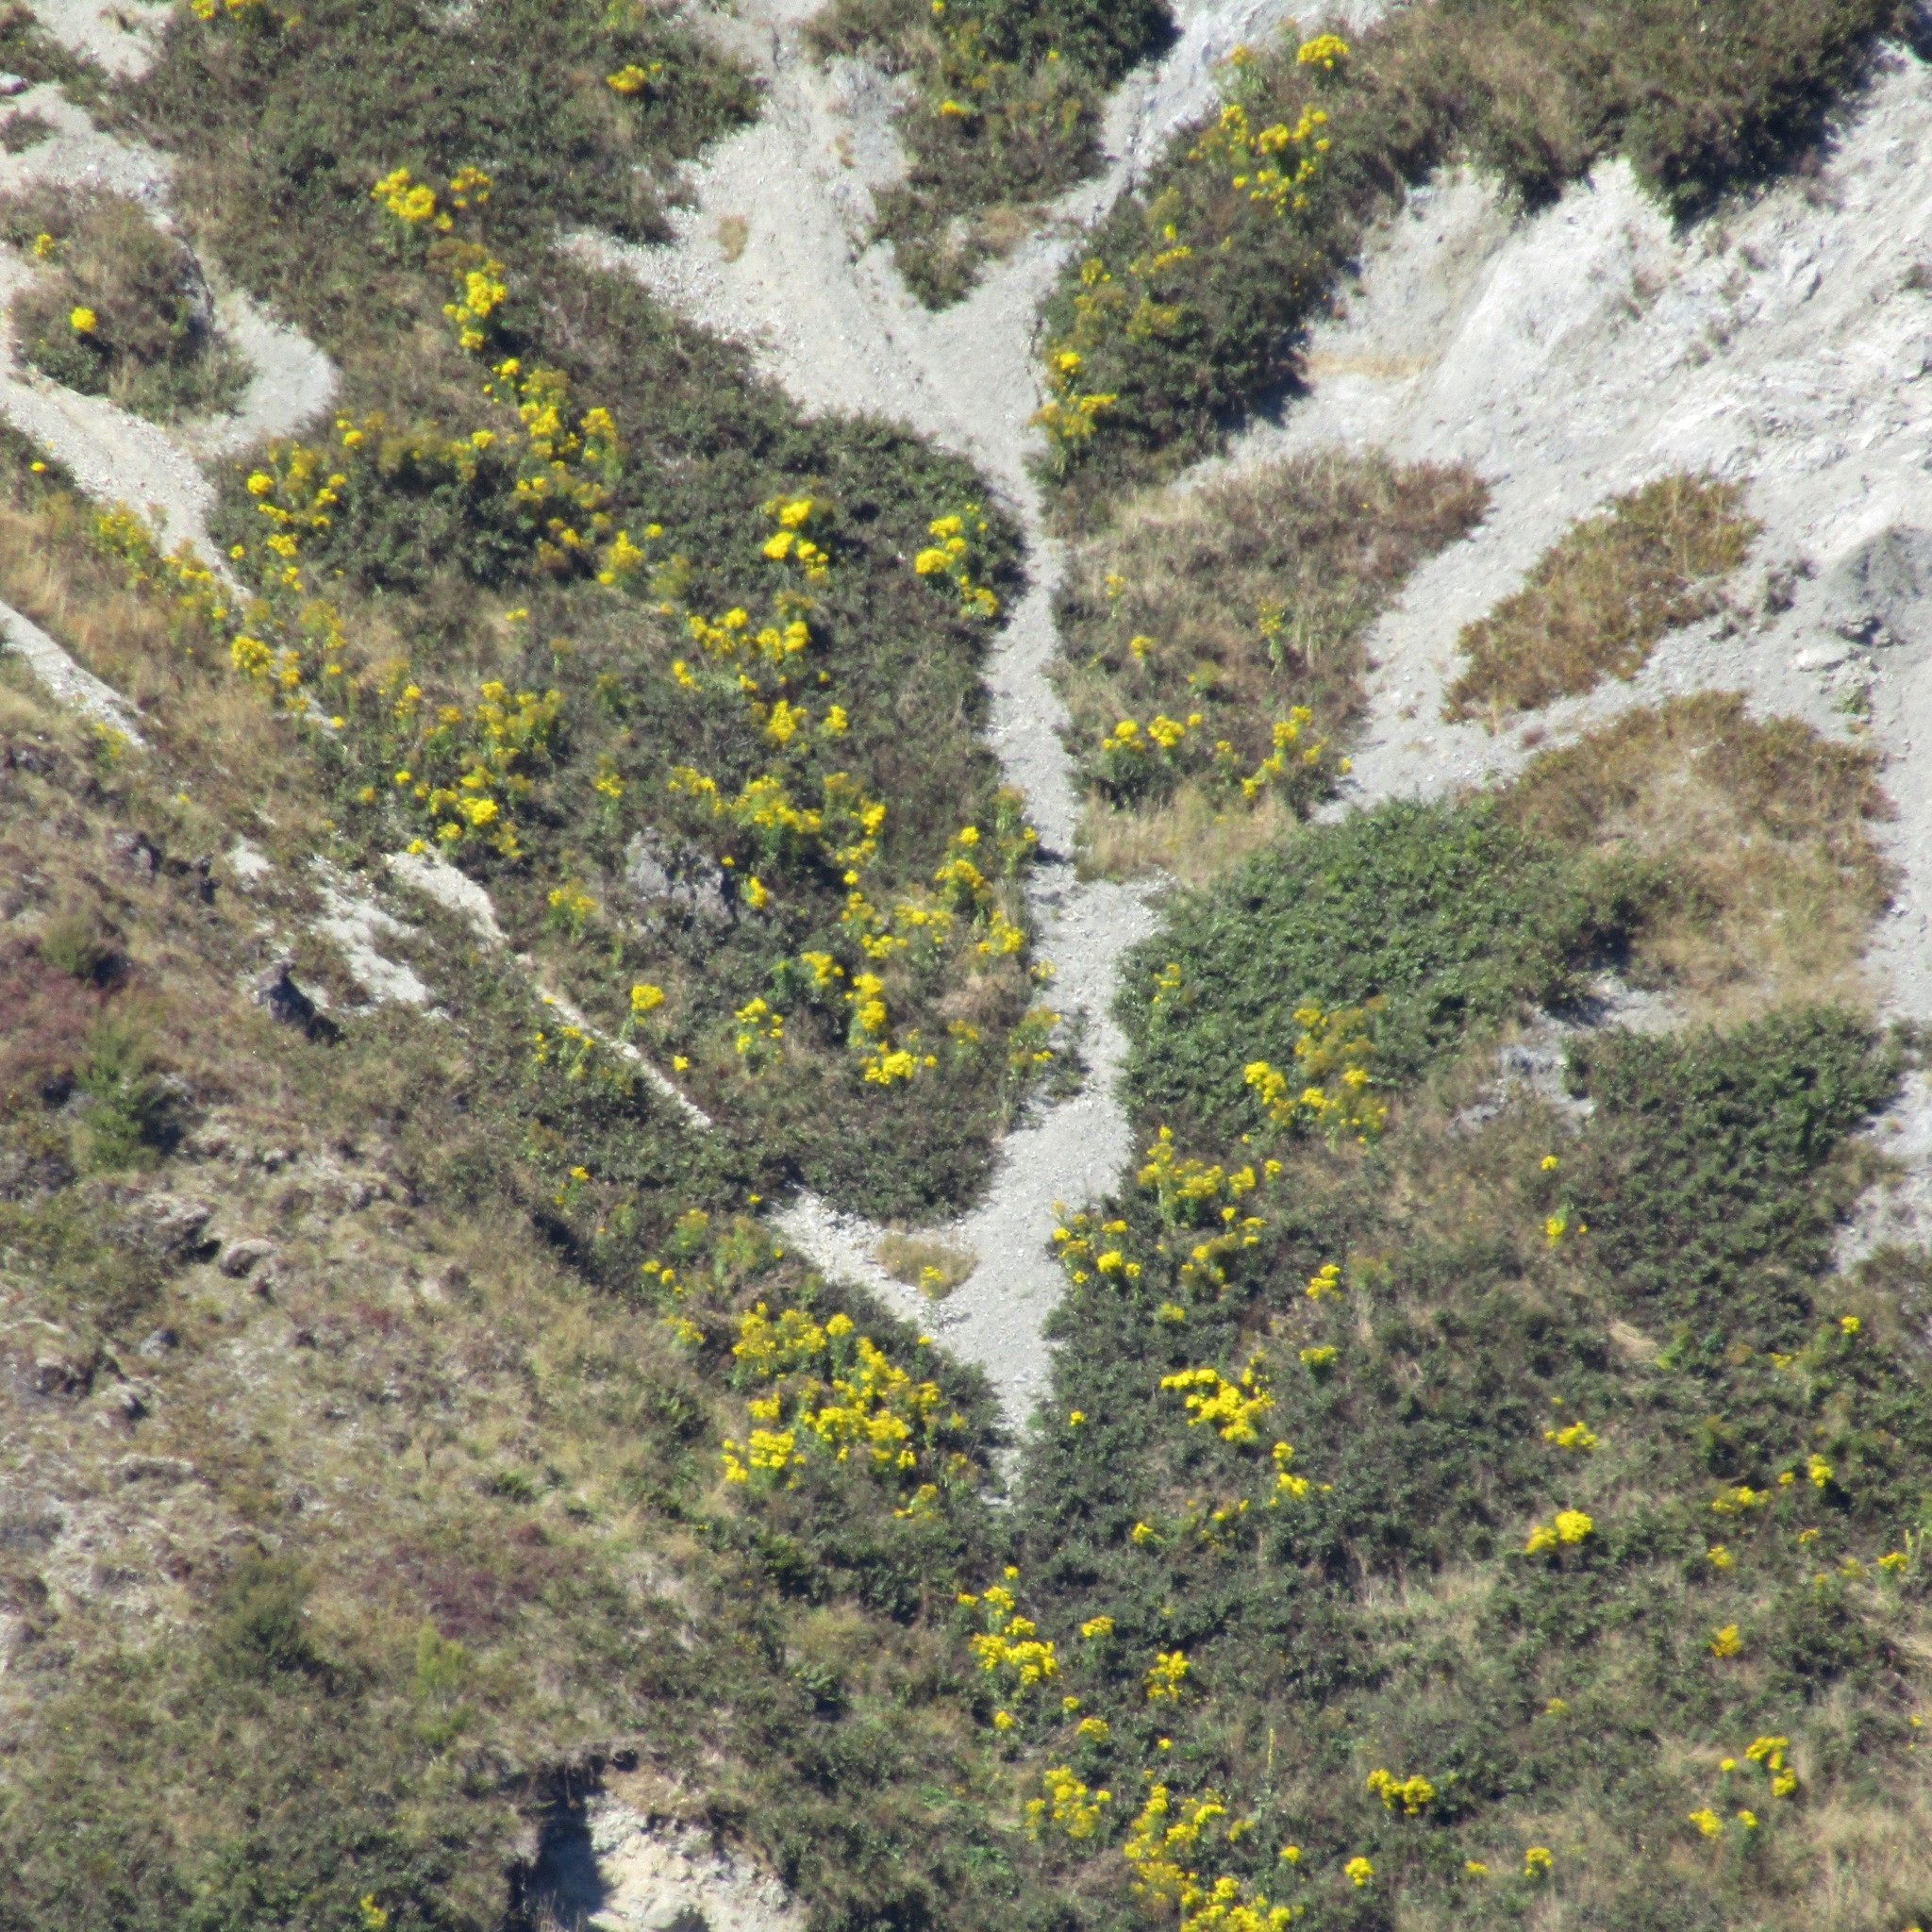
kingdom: Plantae
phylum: Tracheophyta
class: Magnoliopsida
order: Asterales
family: Asteraceae
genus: Jacobaea
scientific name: Jacobaea vulgaris
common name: Stinking willie
